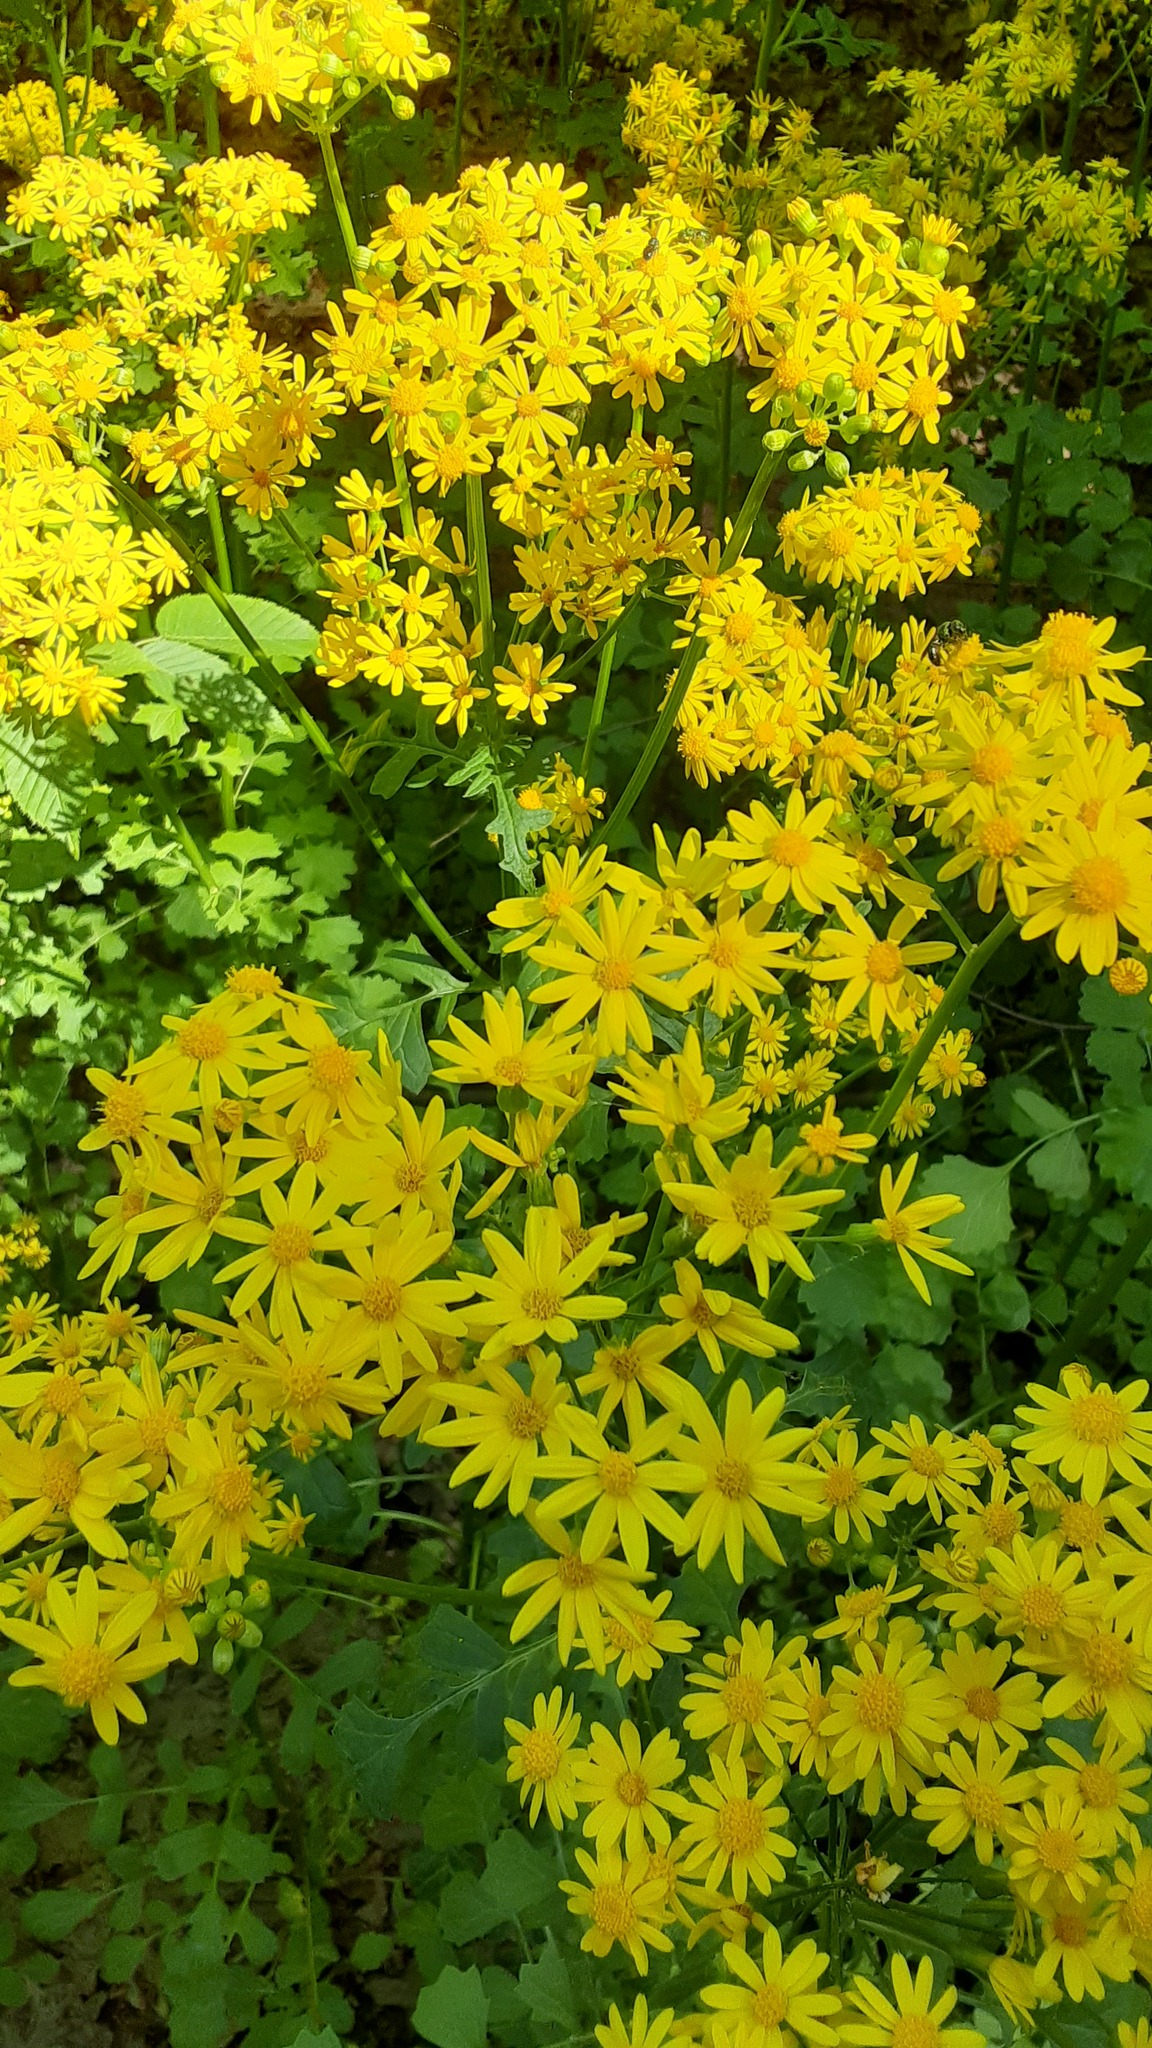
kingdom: Plantae
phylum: Tracheophyta
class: Magnoliopsida
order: Asterales
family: Asteraceae
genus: Packera
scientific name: Packera glabella
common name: Butterweed
